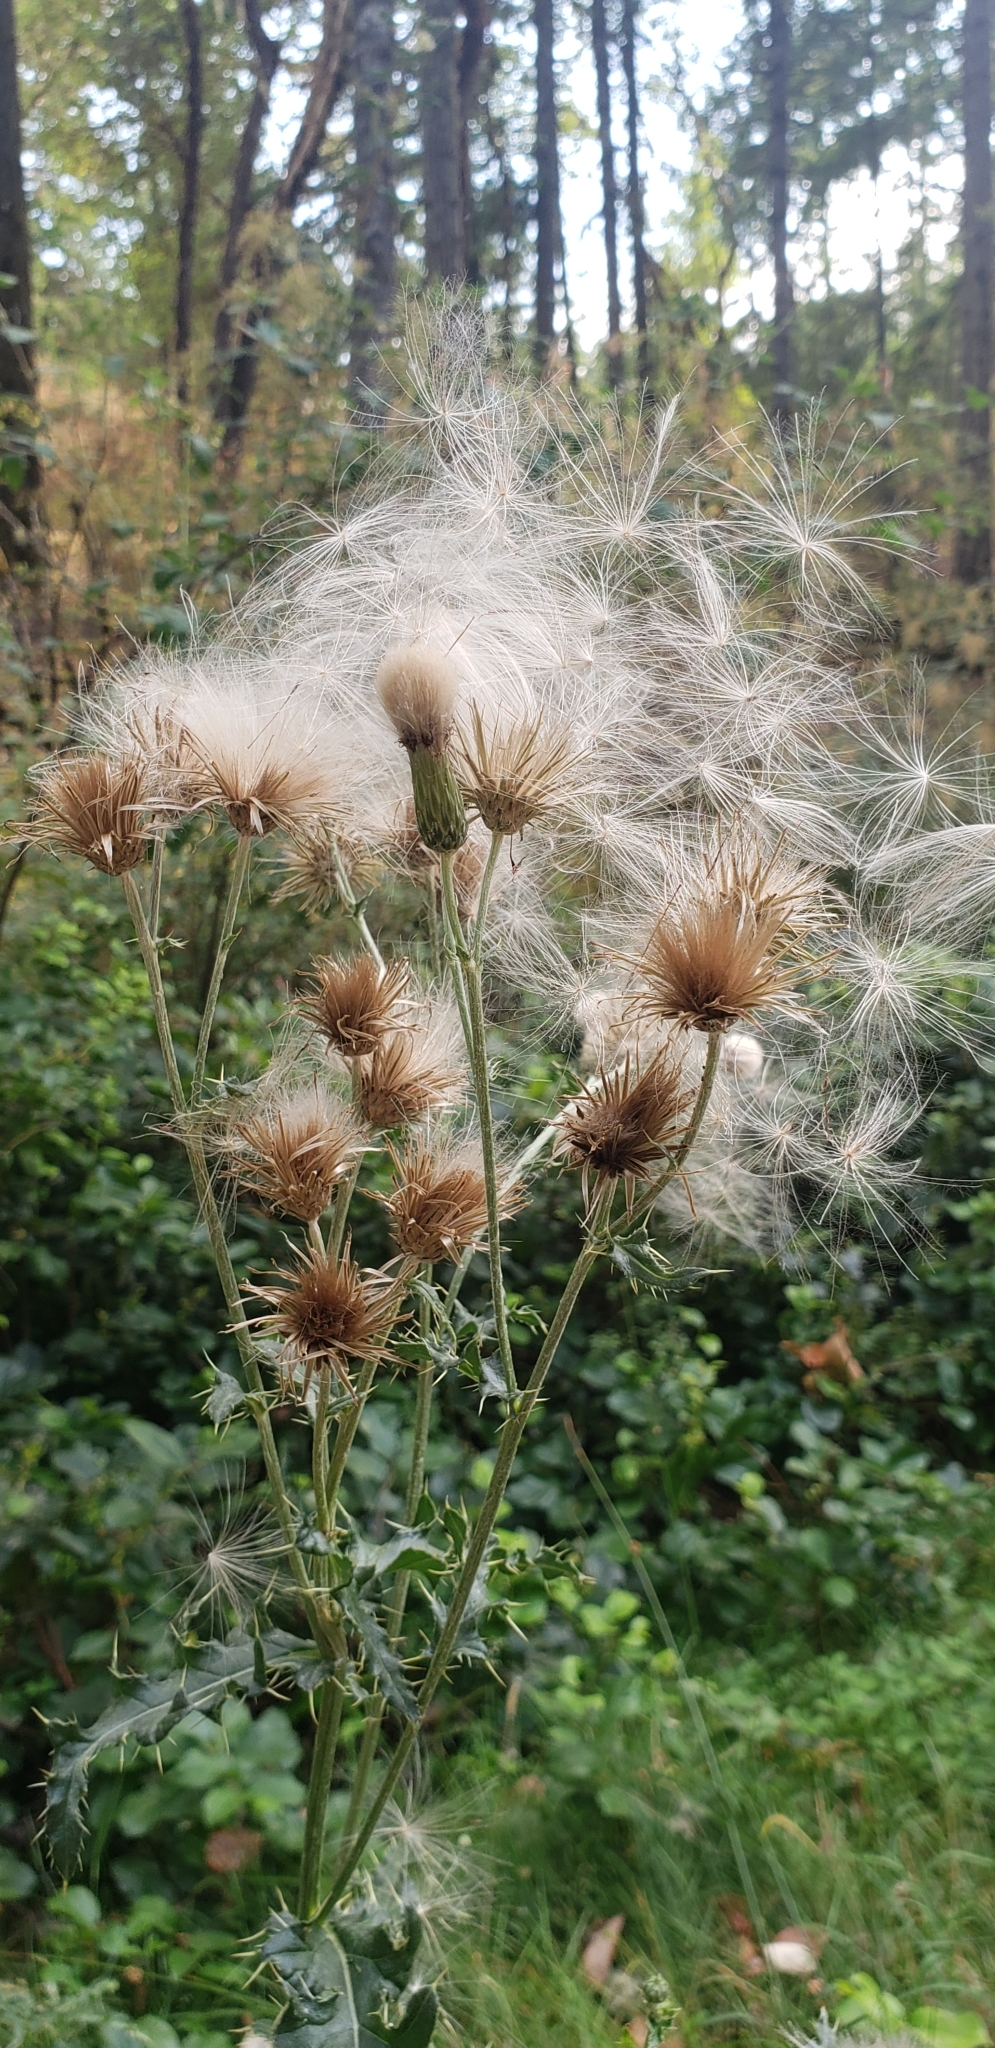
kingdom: Plantae
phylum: Tracheophyta
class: Magnoliopsida
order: Asterales
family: Asteraceae
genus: Cirsium
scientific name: Cirsium arvense
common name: Creeping thistle
